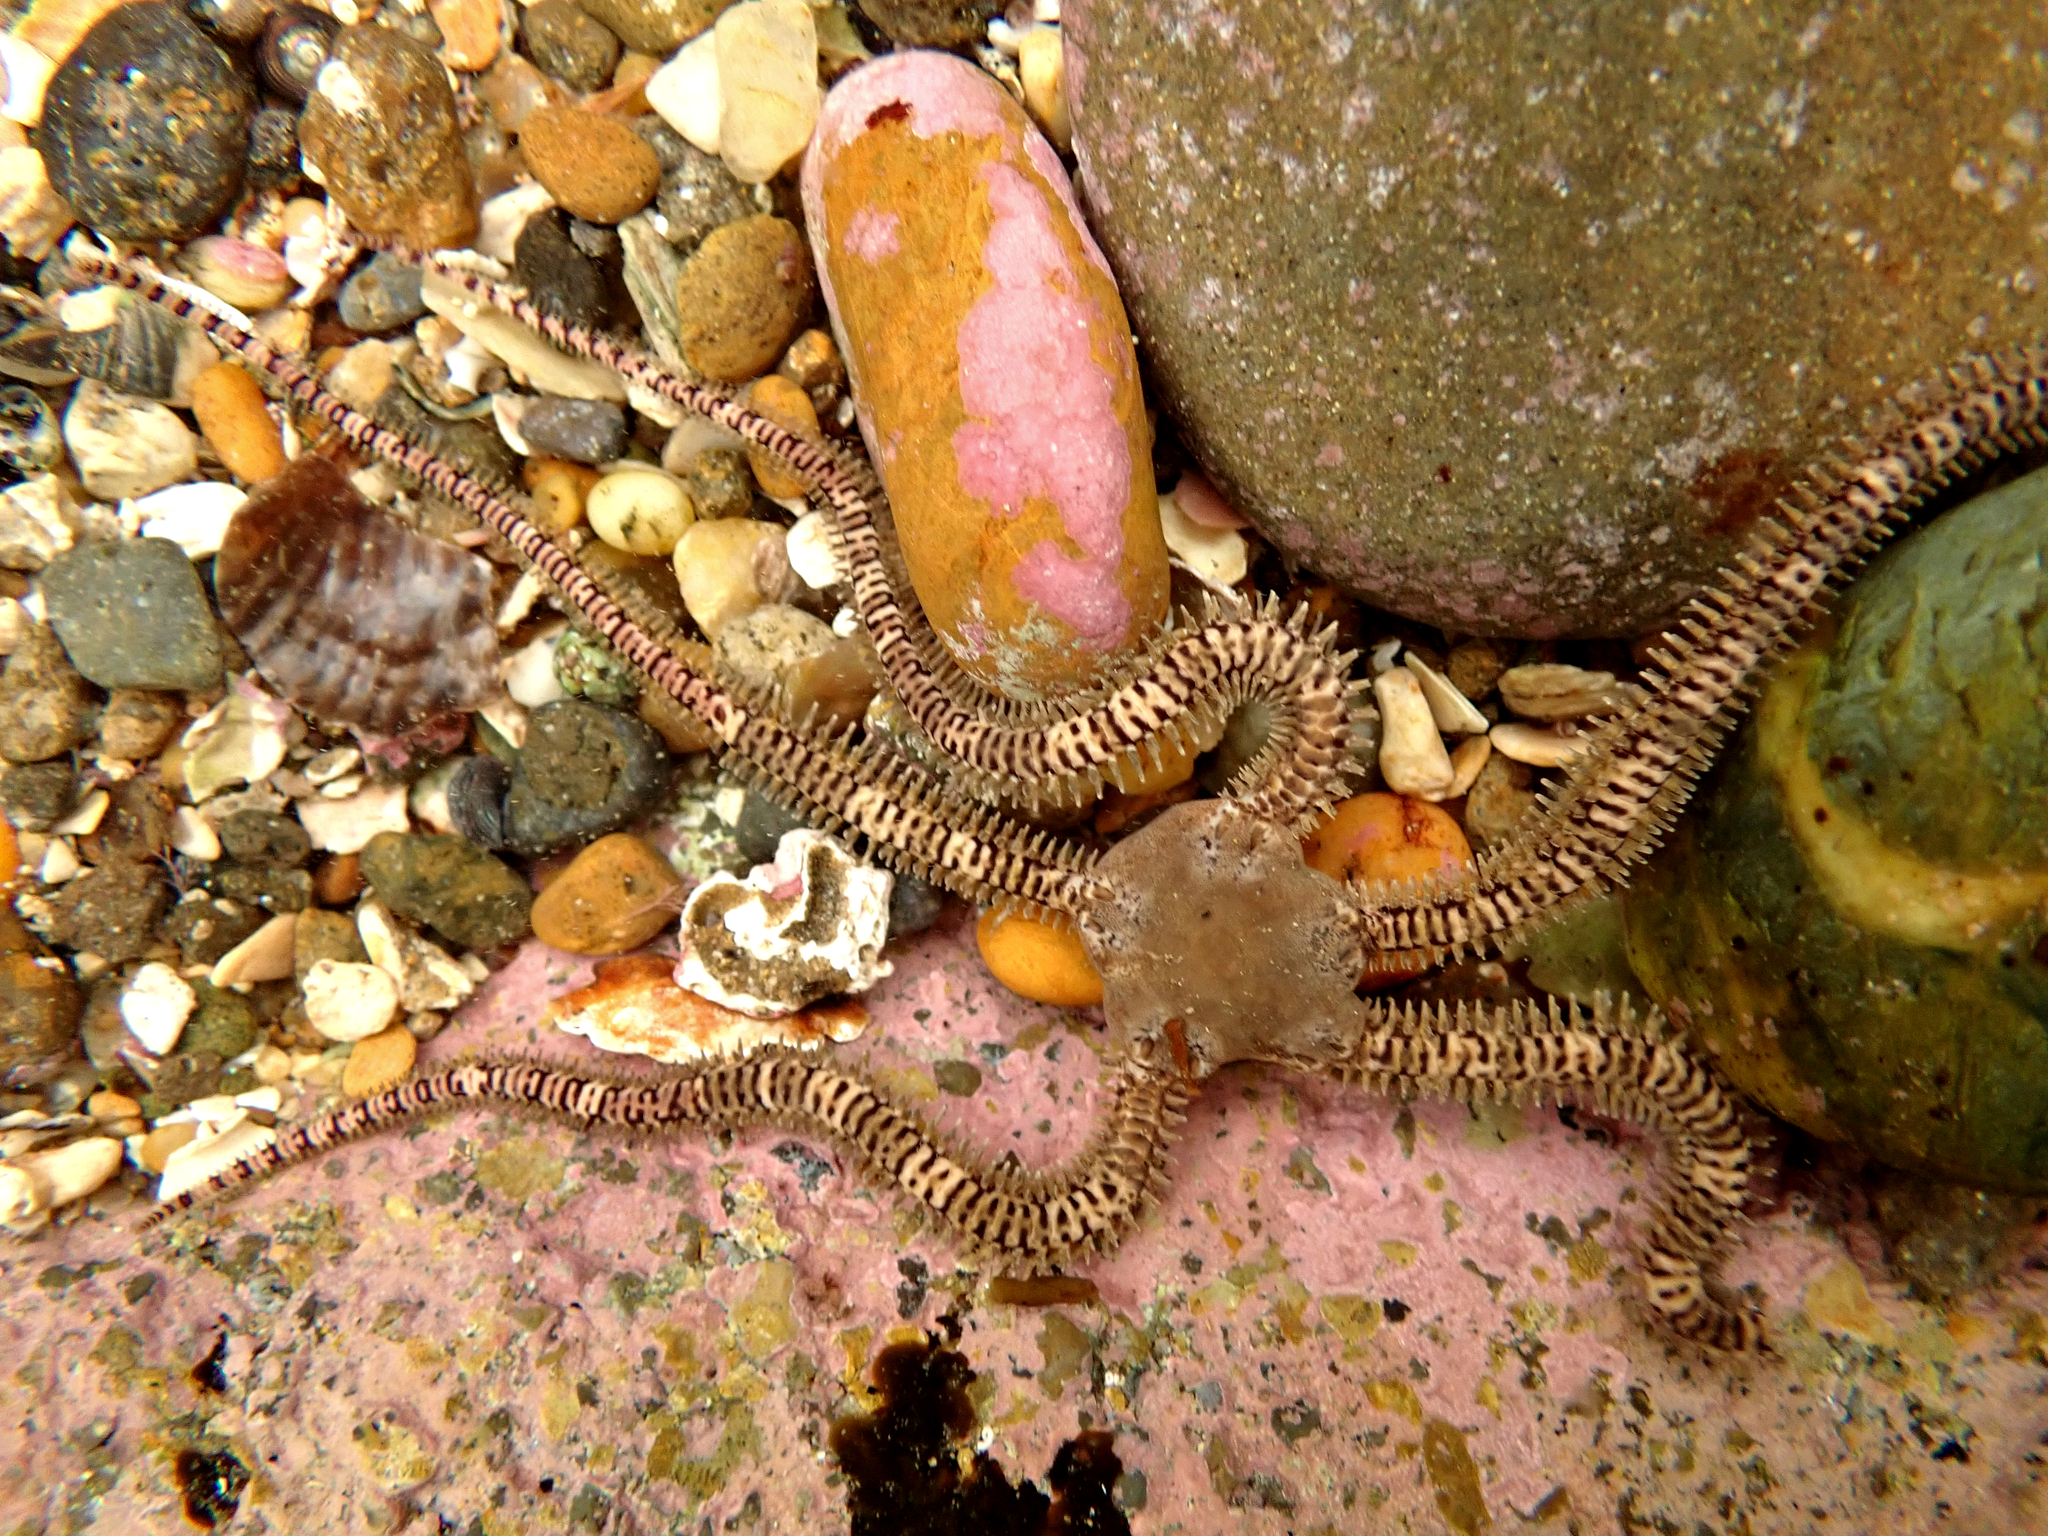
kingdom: Animalia
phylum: Echinodermata
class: Ophiuroidea
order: Amphilepidida
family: Ophionereididae
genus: Ophionereis
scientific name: Ophionereis fasciata
